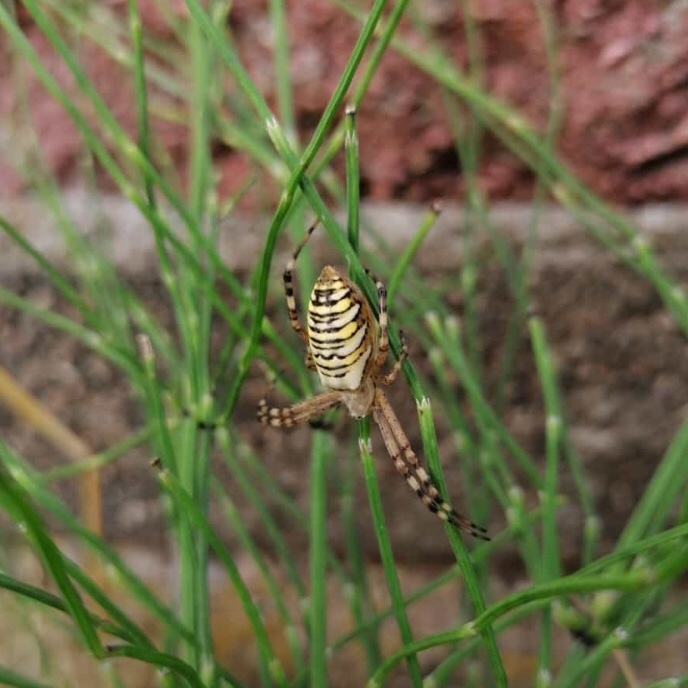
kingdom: Animalia
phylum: Arthropoda
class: Arachnida
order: Araneae
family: Araneidae
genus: Argiope
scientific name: Argiope bruennichi
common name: Wasp spider
